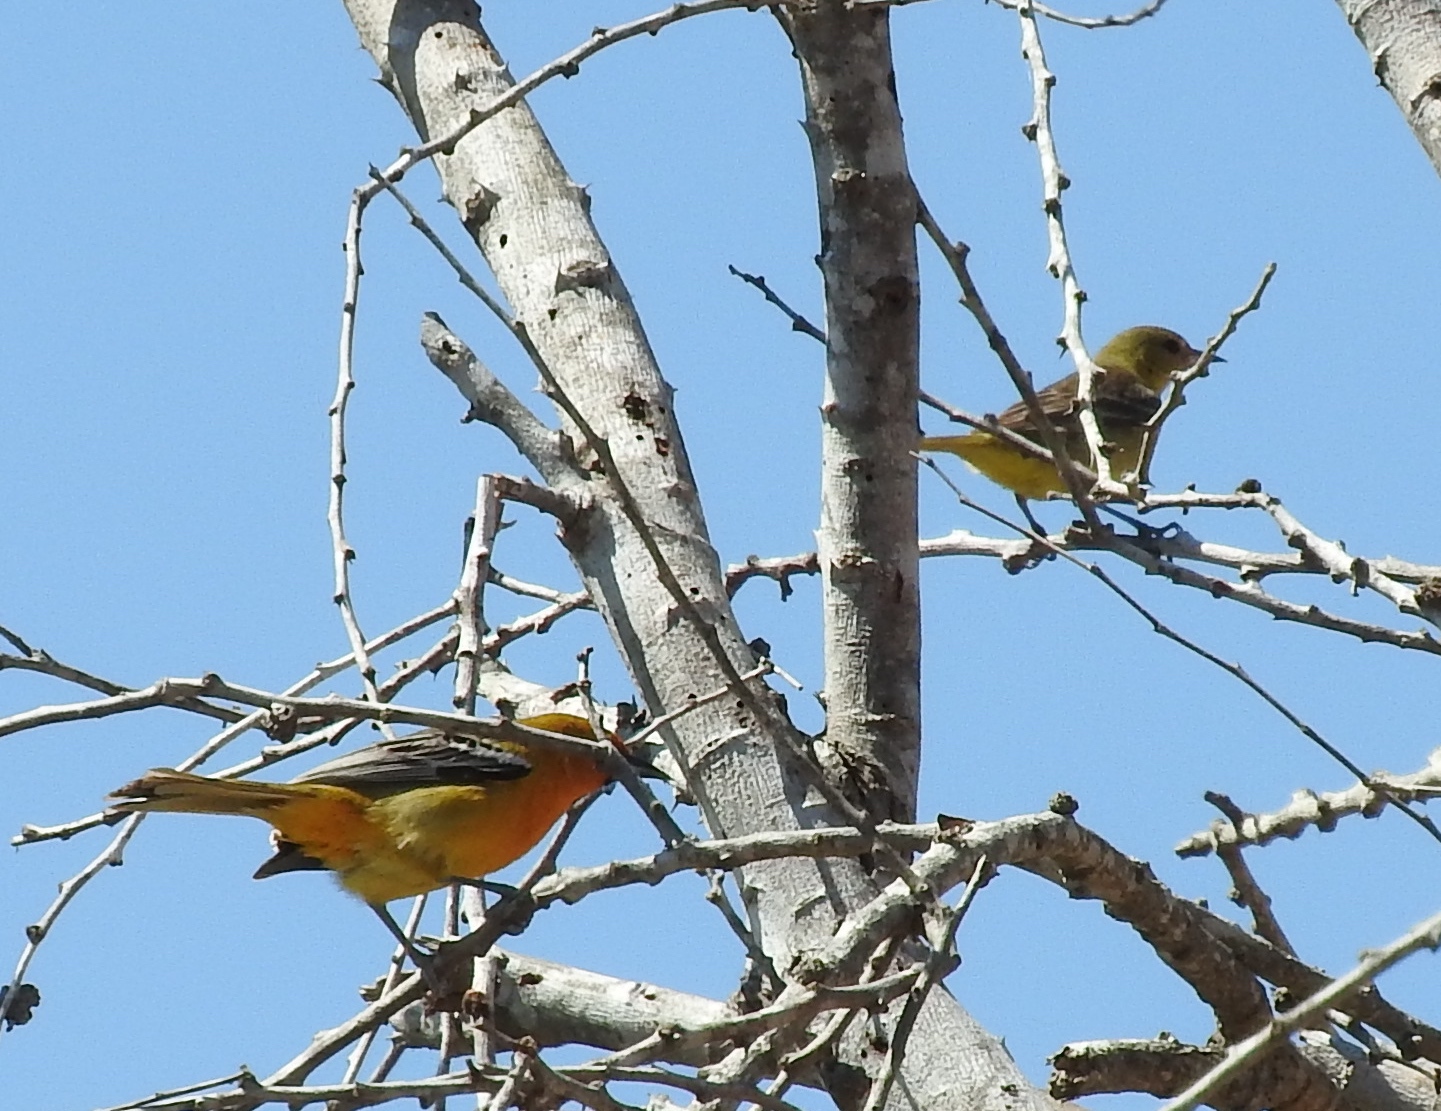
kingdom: Animalia
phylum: Chordata
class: Aves
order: Passeriformes
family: Icteridae
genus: Icterus
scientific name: Icterus pustulatus
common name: Streak-backed oriole
